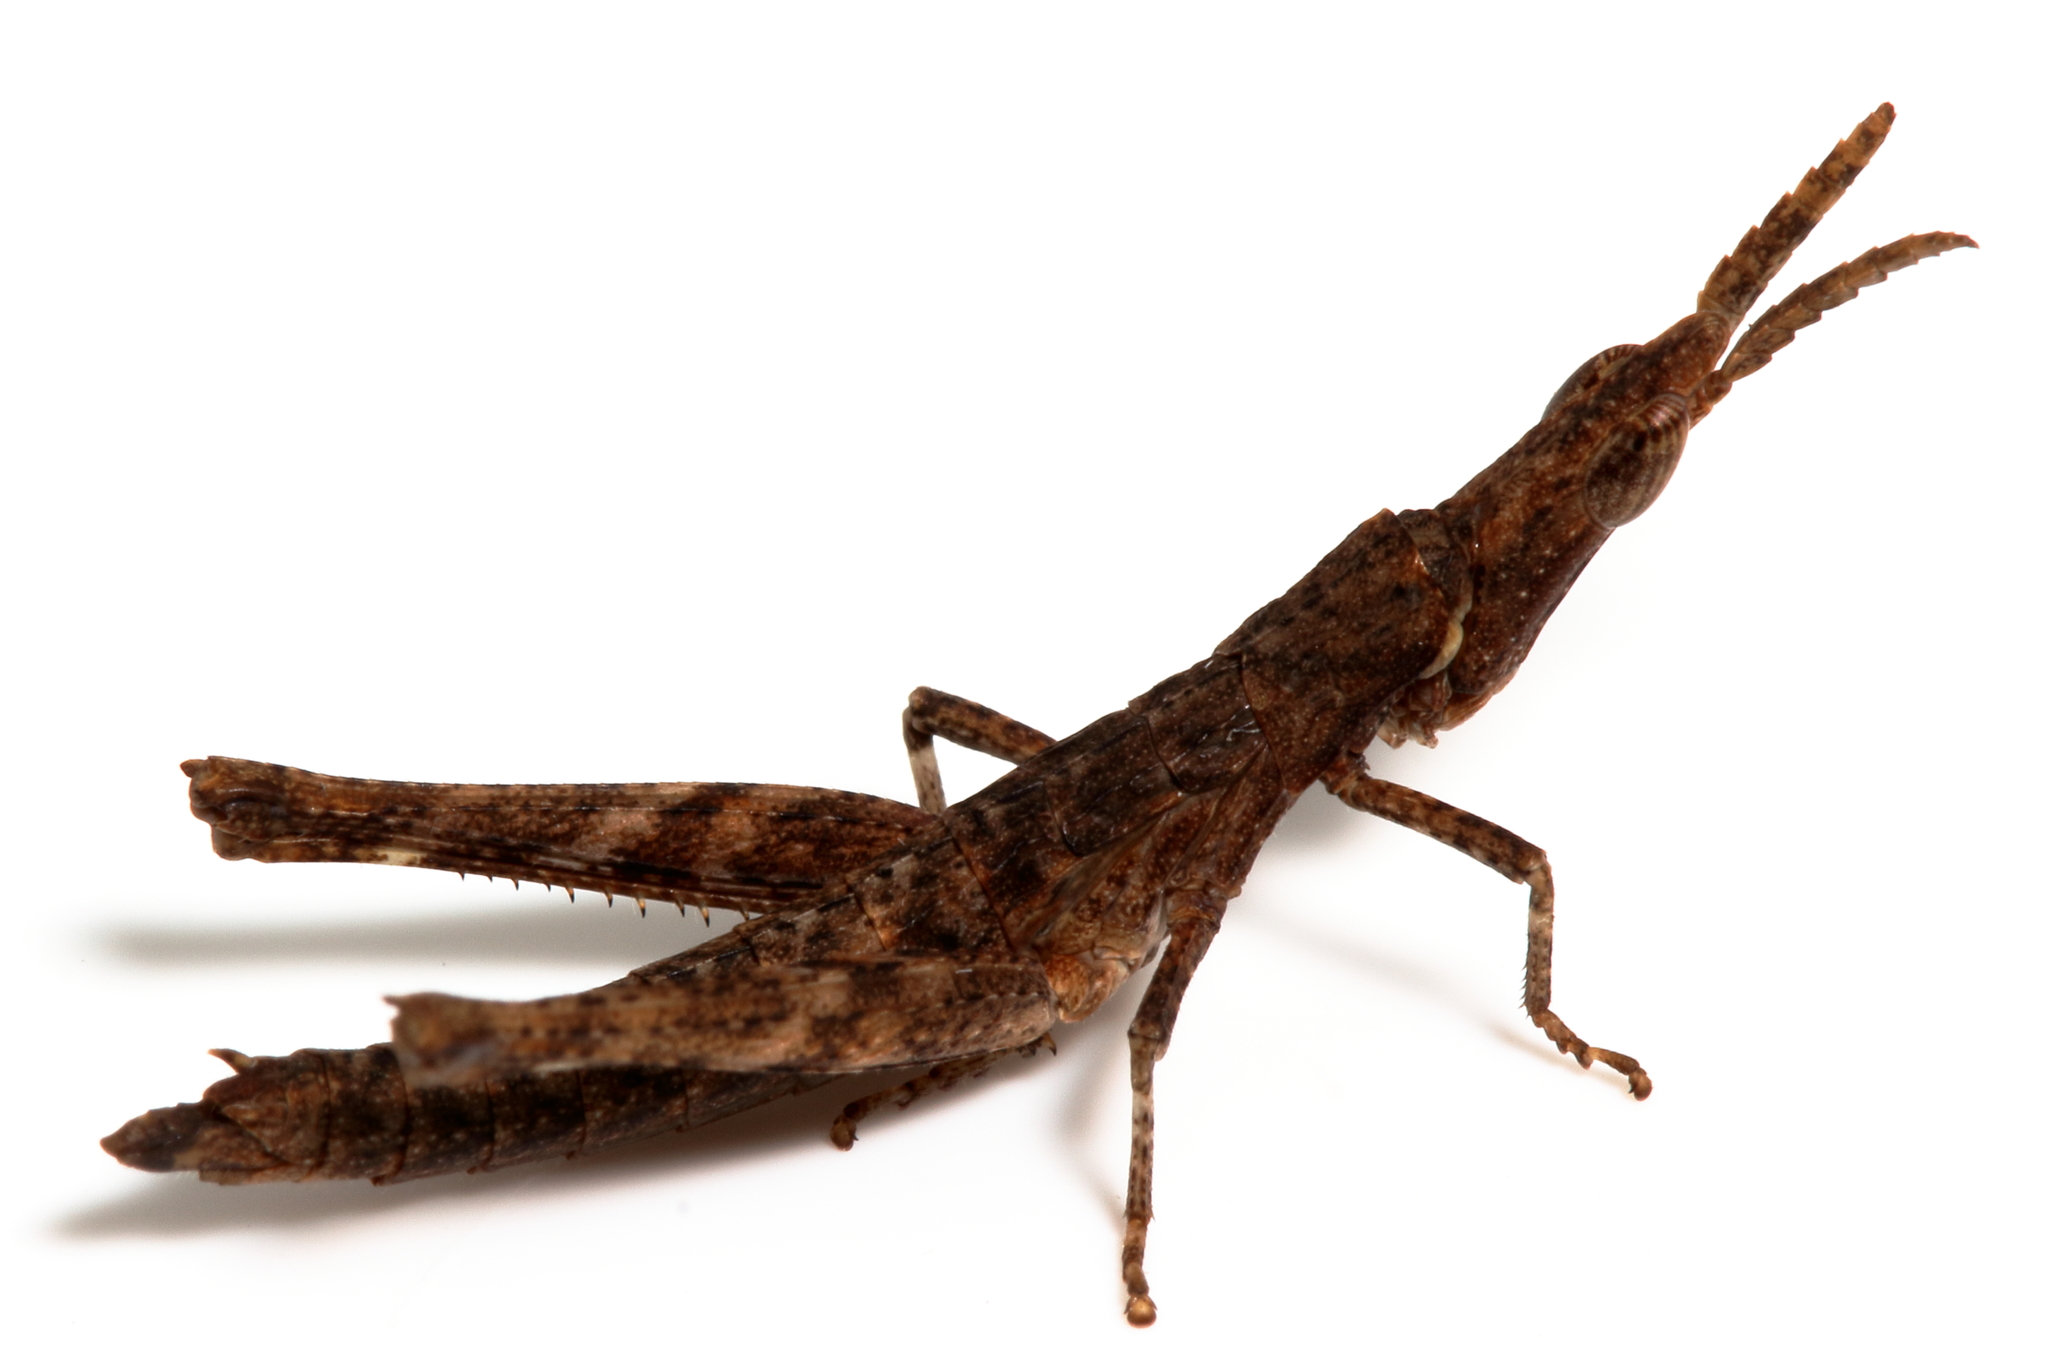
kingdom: Animalia
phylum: Arthropoda
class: Insecta
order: Orthoptera
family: Morabidae
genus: Vandiemenella
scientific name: Vandiemenella viatica
